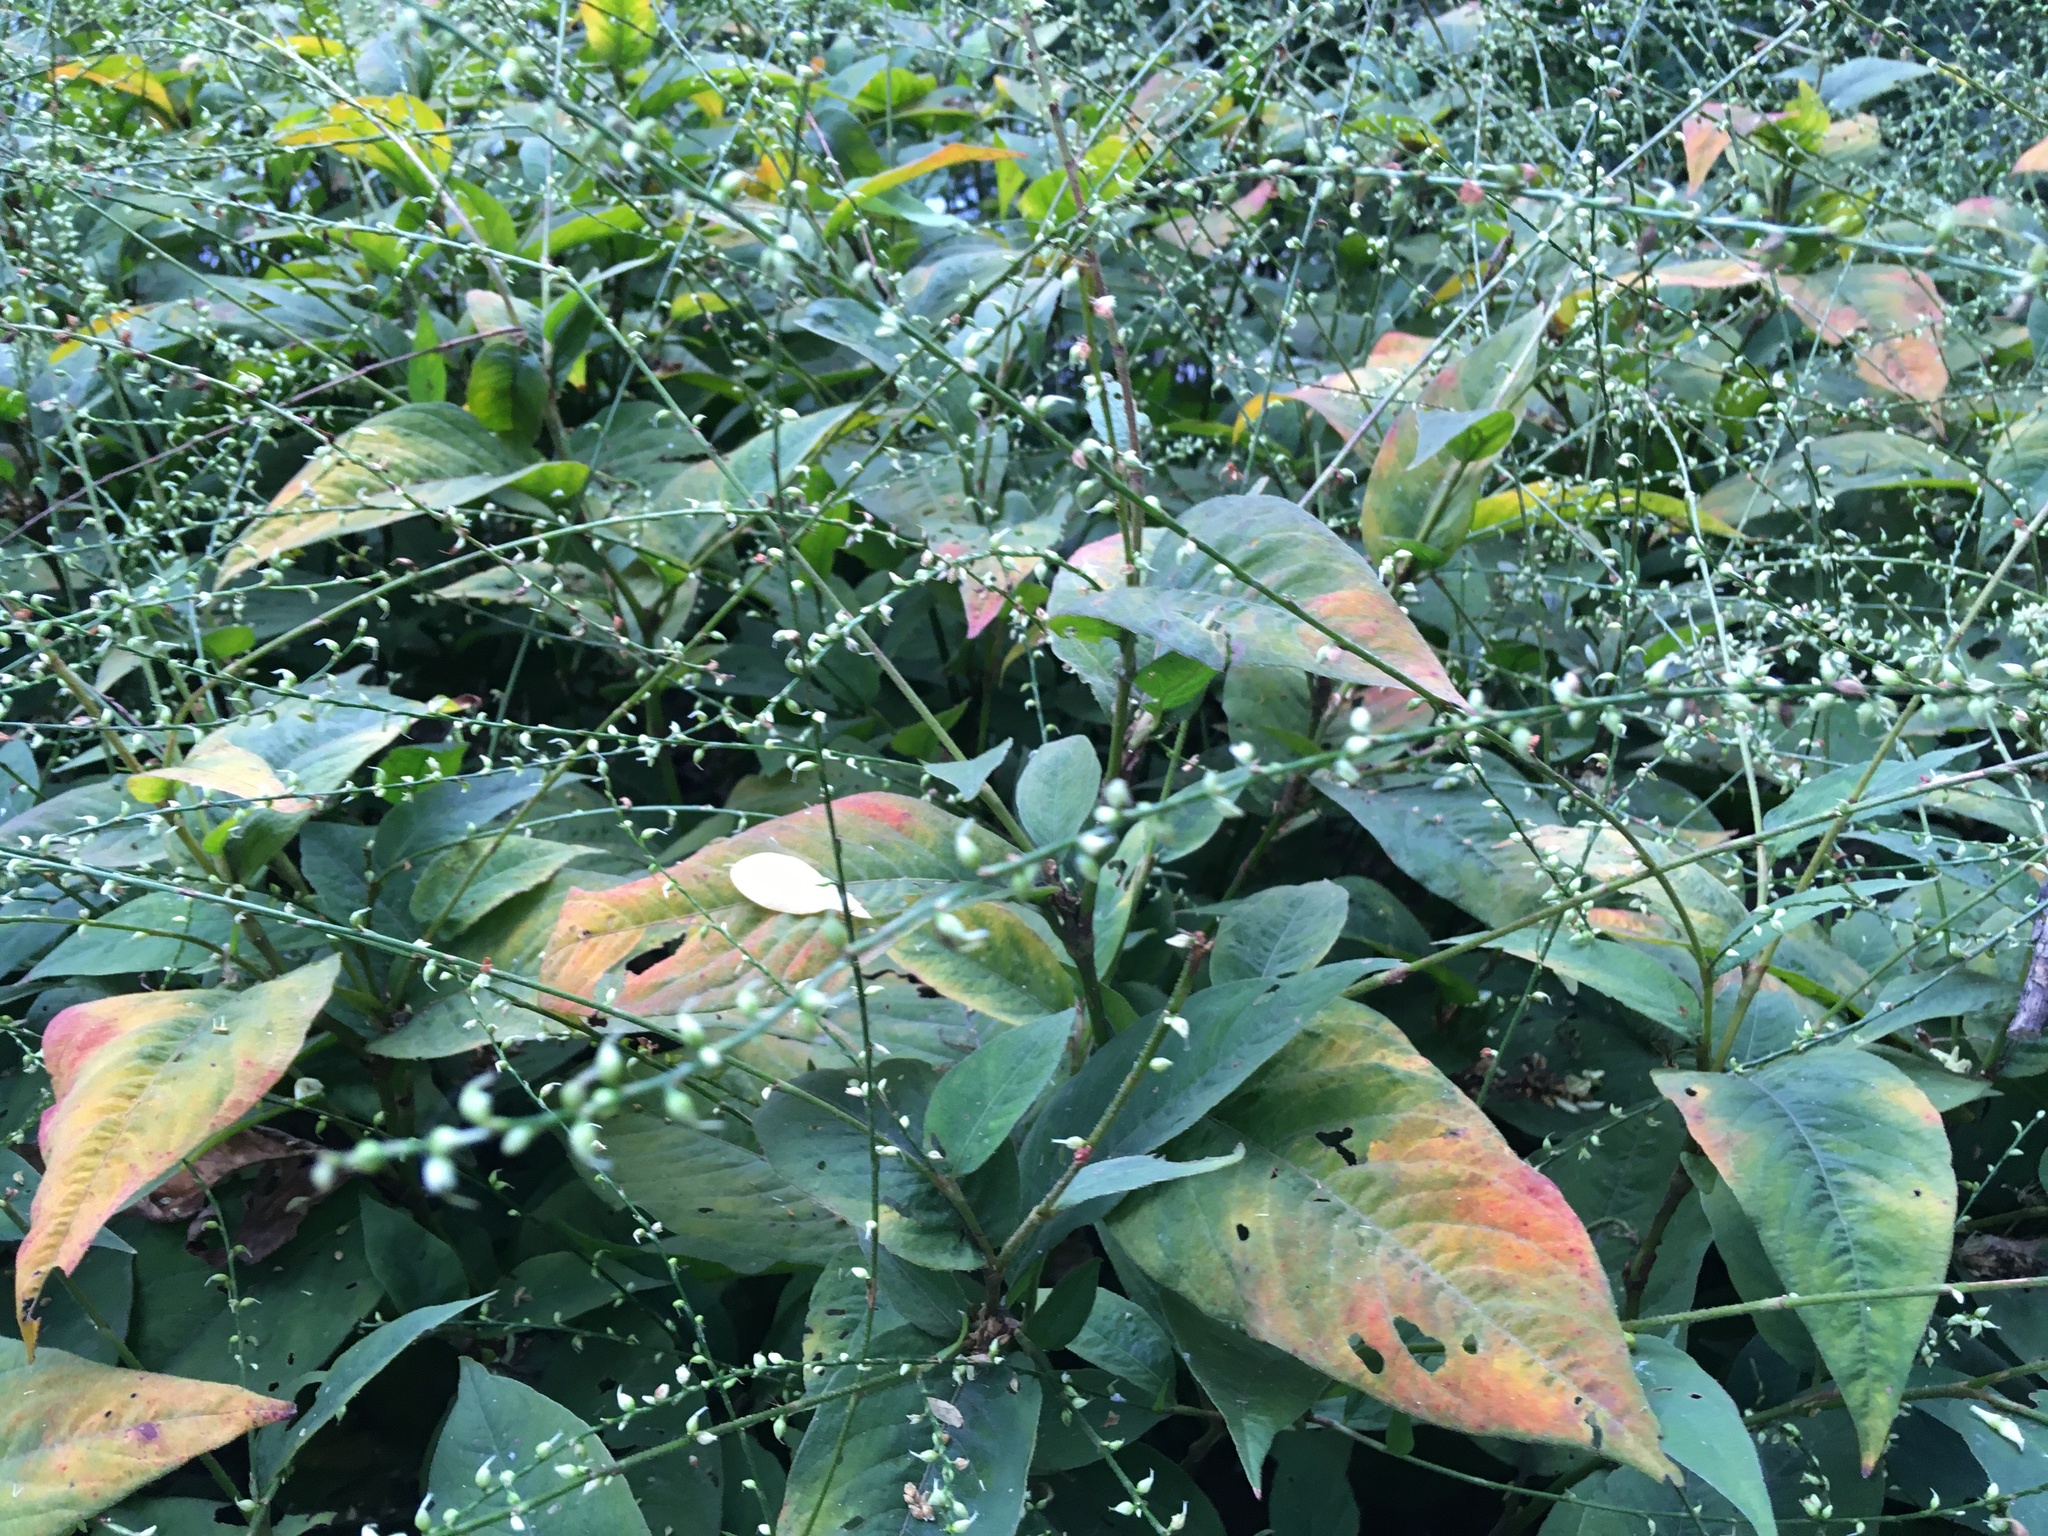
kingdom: Plantae
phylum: Tracheophyta
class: Magnoliopsida
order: Caryophyllales
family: Polygonaceae
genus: Persicaria
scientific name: Persicaria virginiana
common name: Jumpseed
